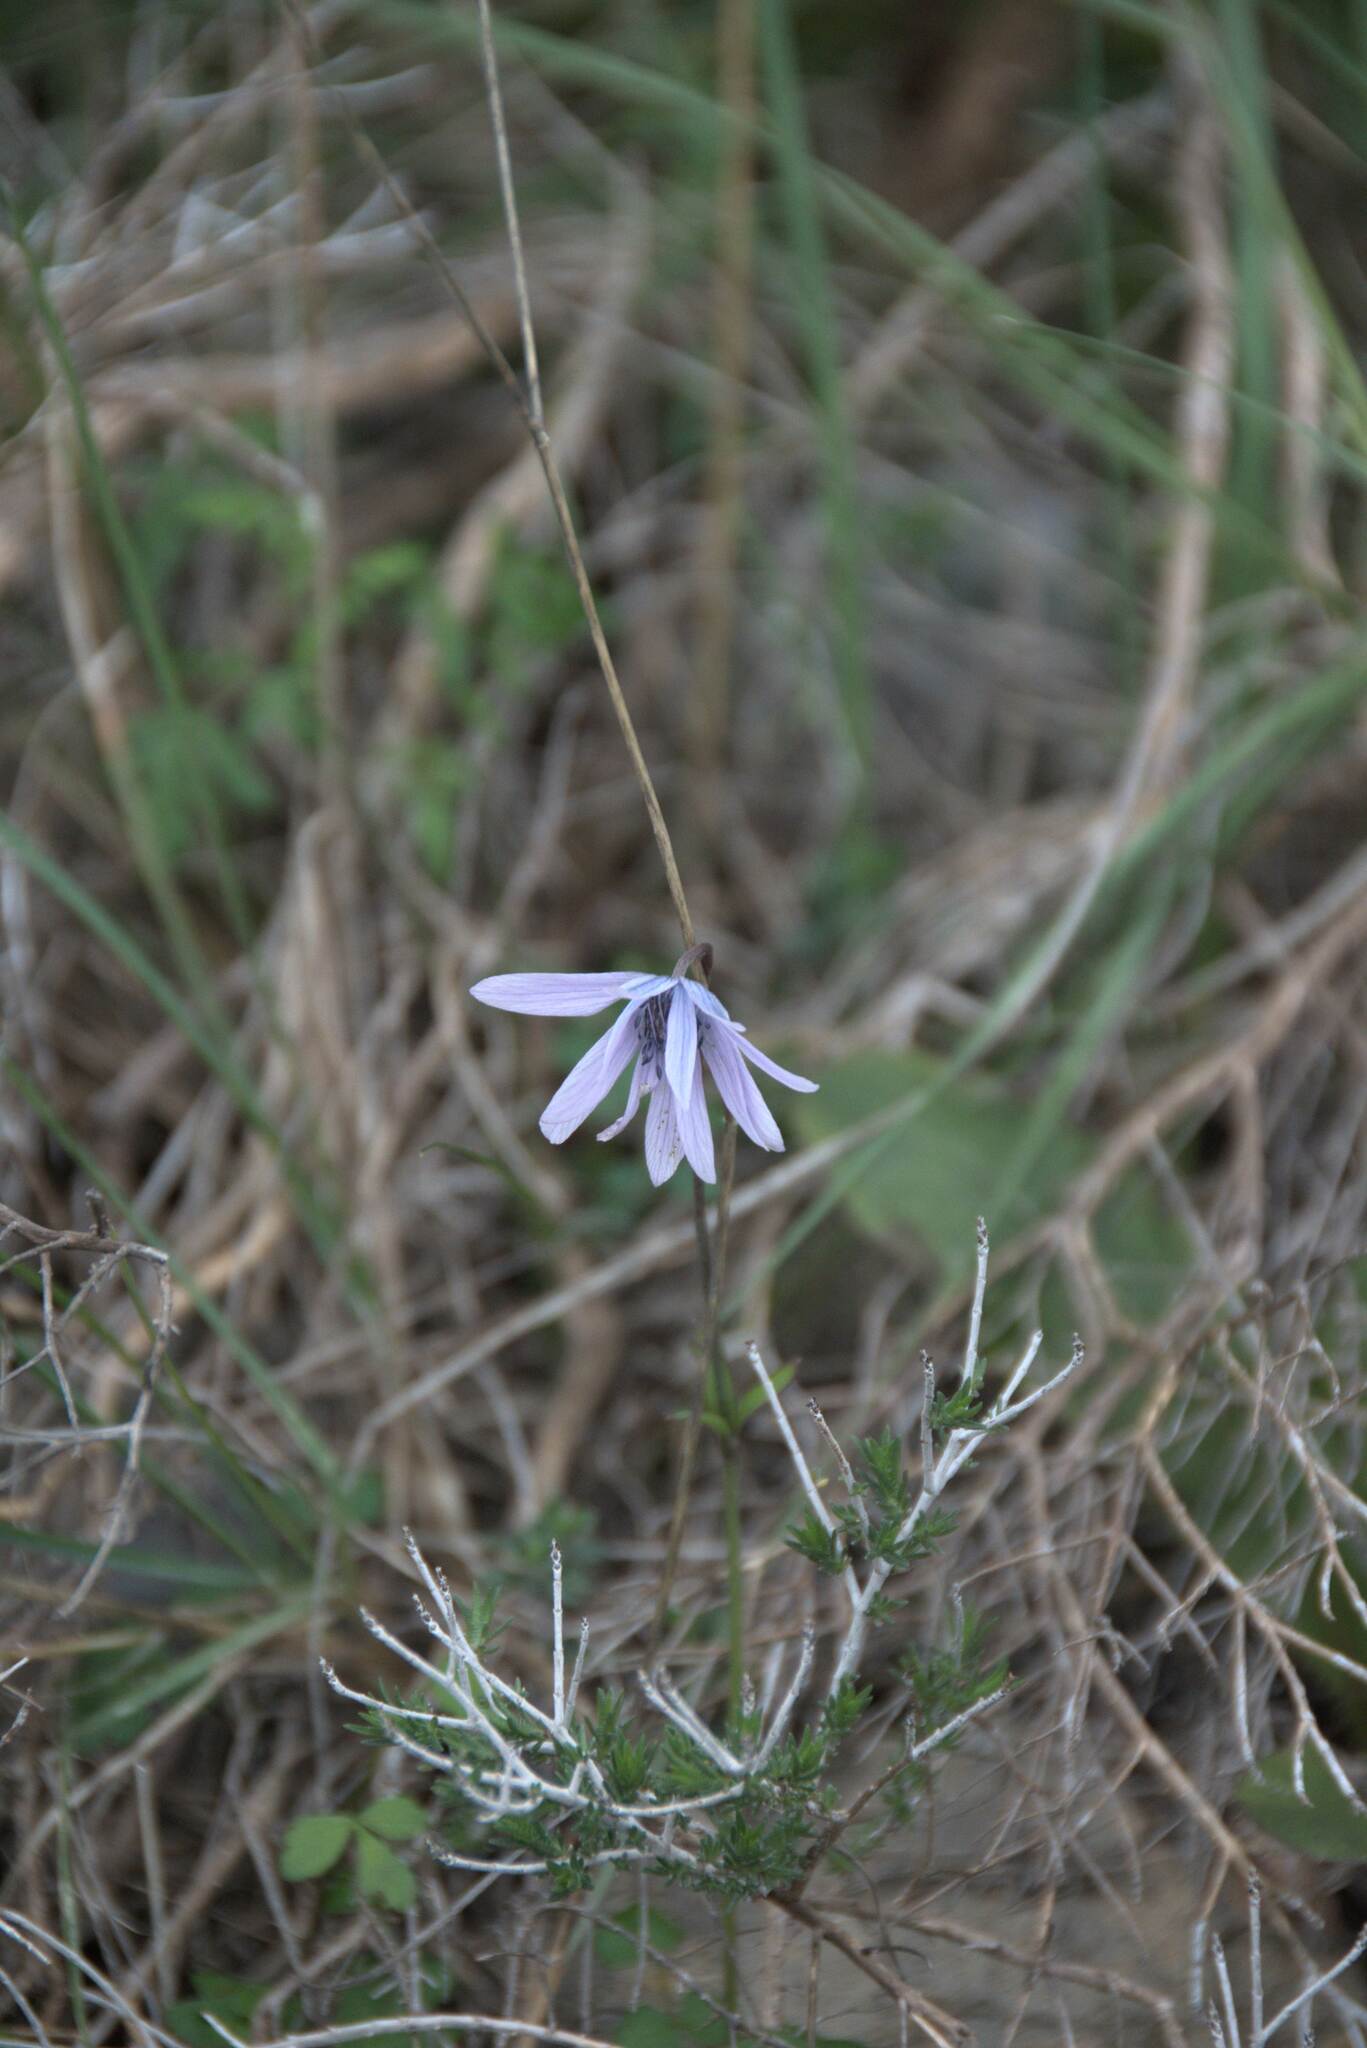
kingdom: Plantae
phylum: Tracheophyta
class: Magnoliopsida
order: Ranunculales
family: Ranunculaceae
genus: Anemone
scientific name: Anemone hortensis
